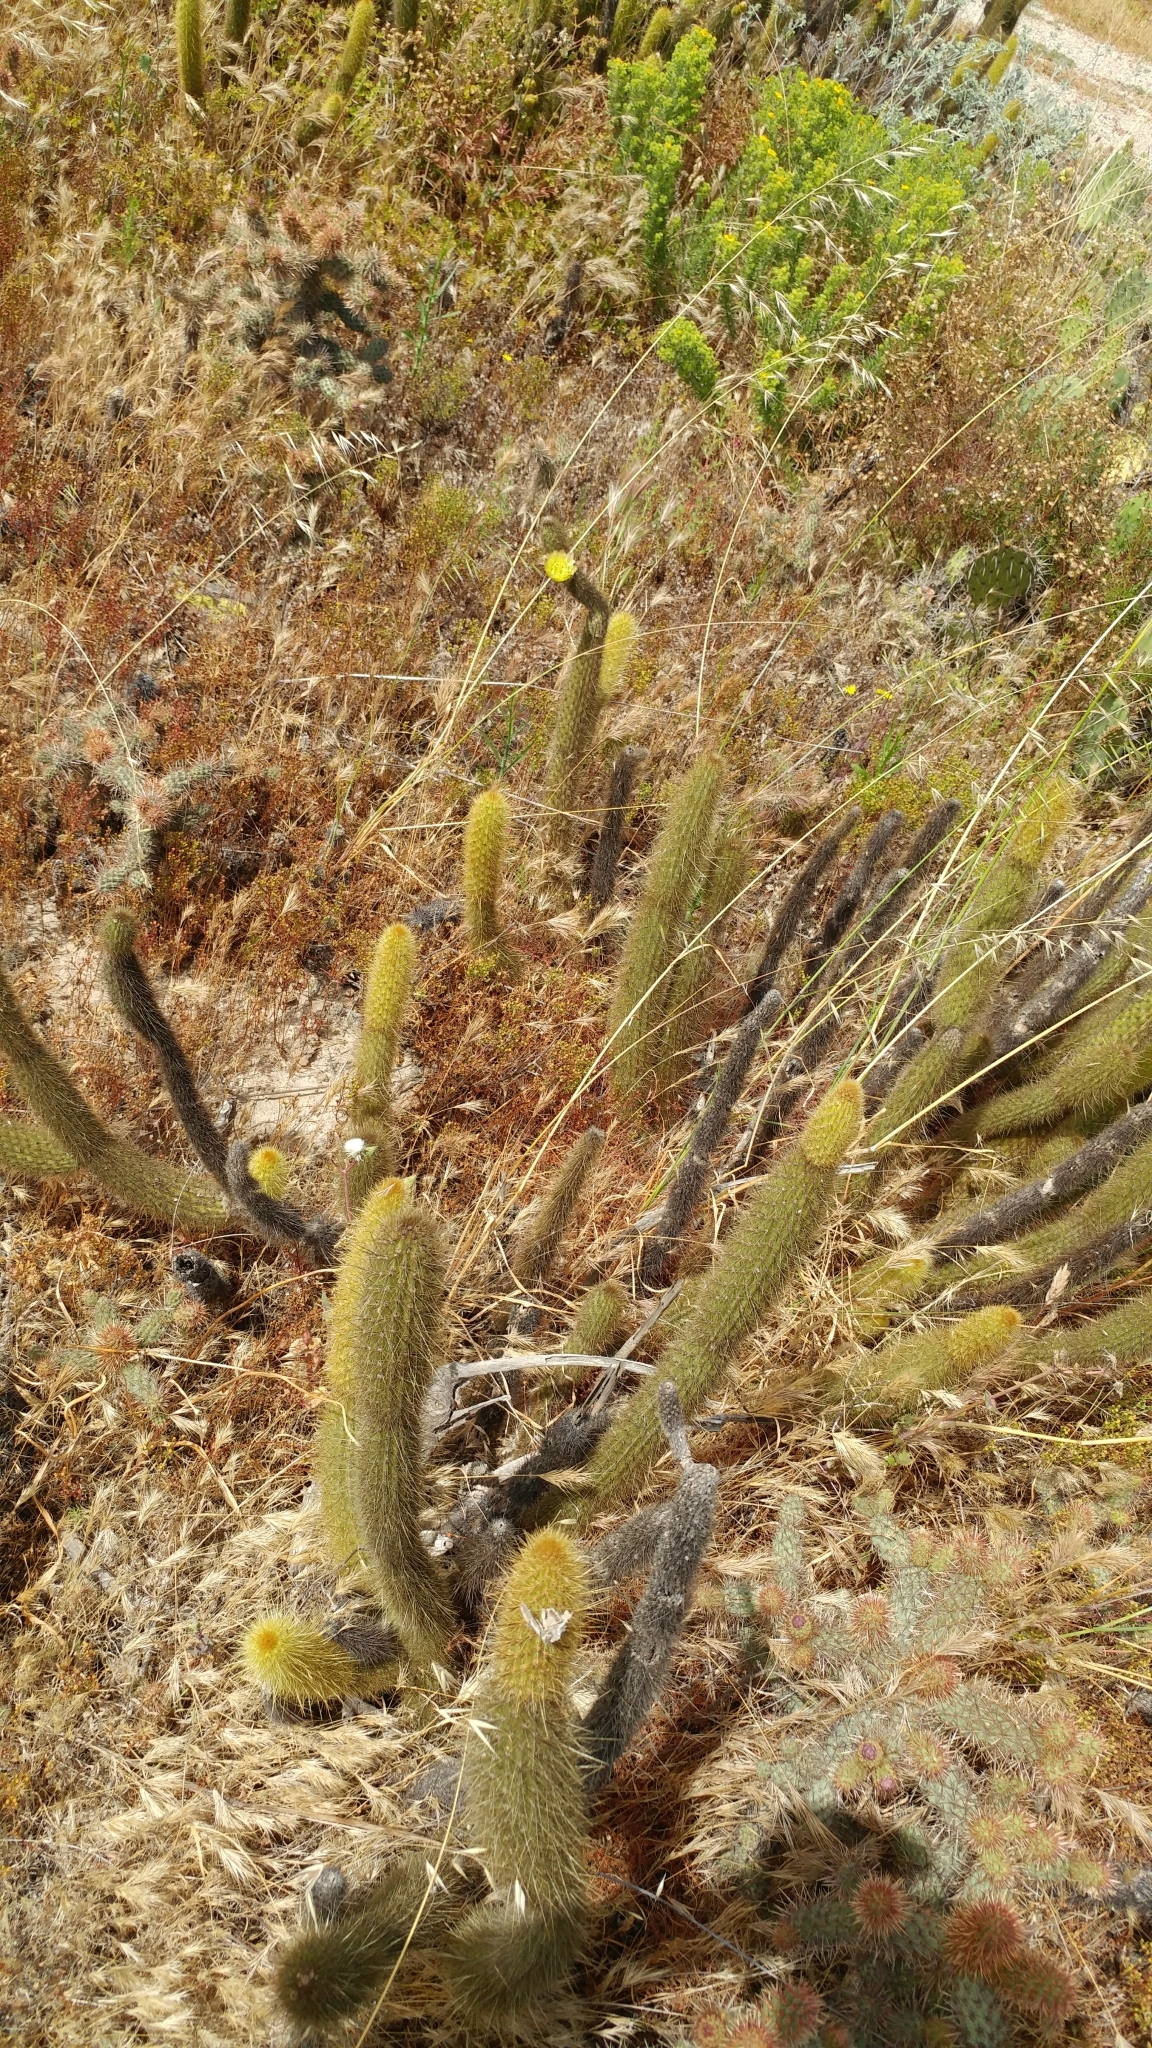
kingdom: Plantae
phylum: Tracheophyta
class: Magnoliopsida
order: Caryophyllales
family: Cactaceae
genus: Bergerocactus
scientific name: Bergerocactus emoryi
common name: Golden snakecactus
